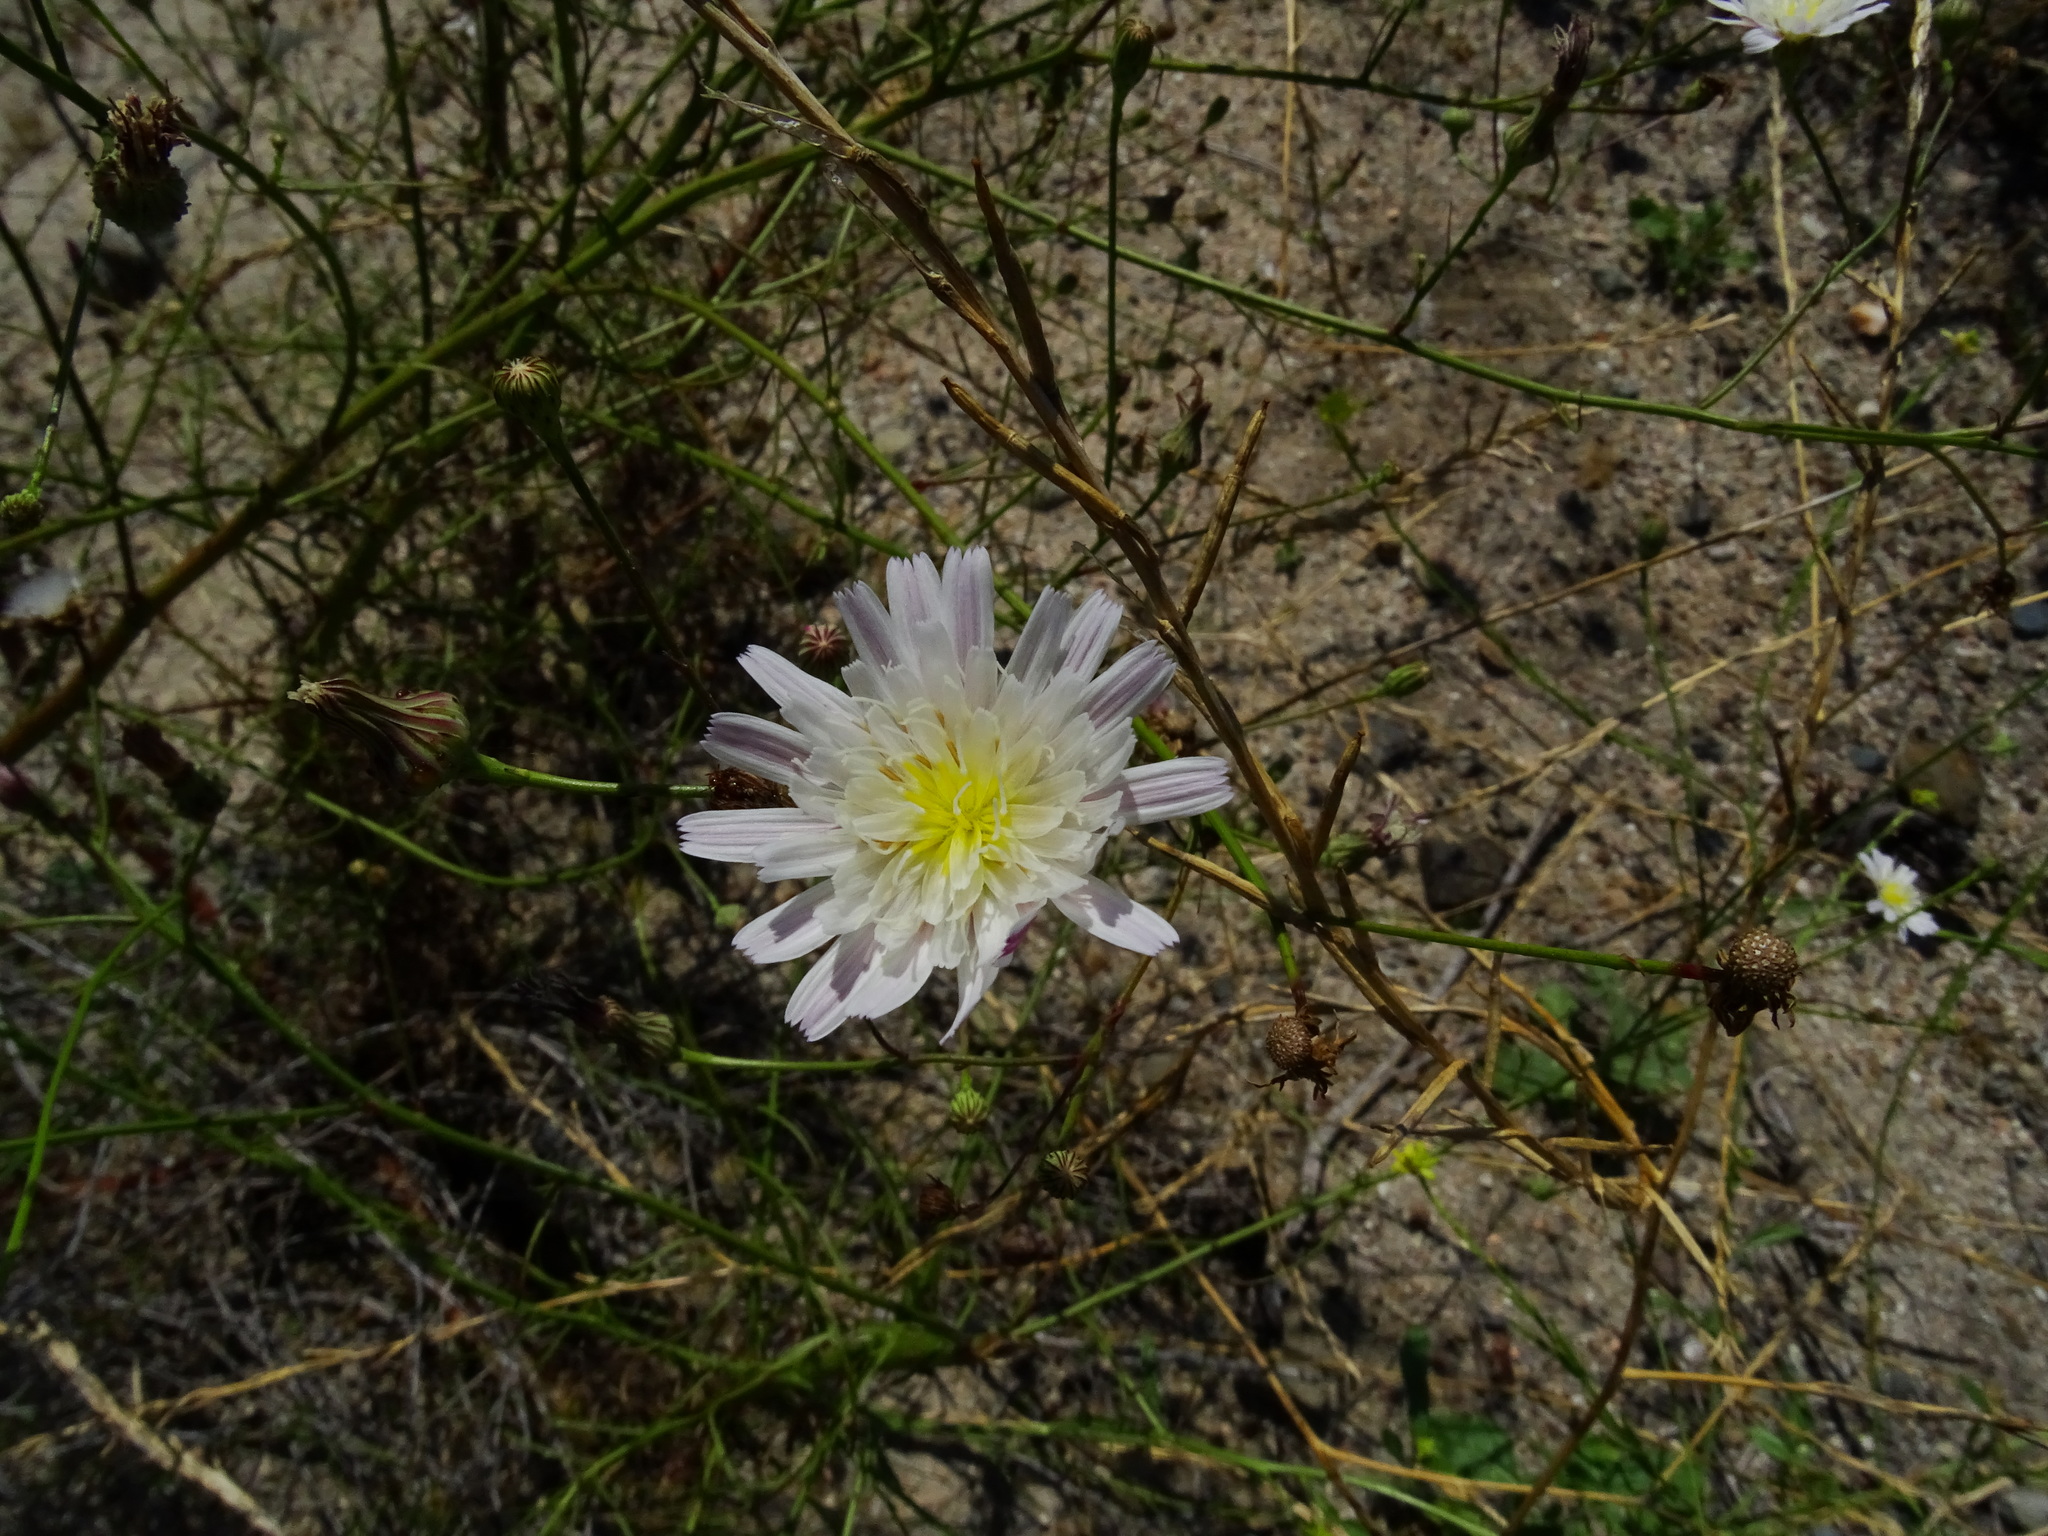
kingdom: Plantae
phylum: Tracheophyta
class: Magnoliopsida
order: Asterales
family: Asteraceae
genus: Malacothrix
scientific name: Malacothrix saxatilis
